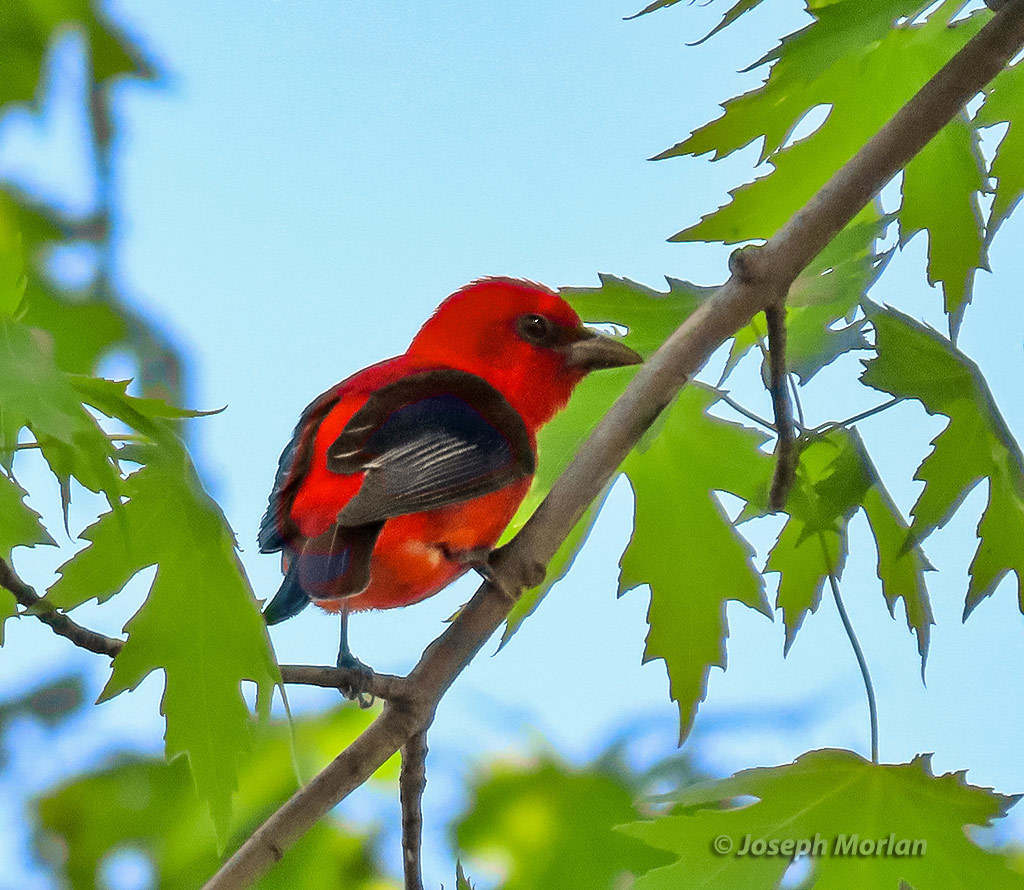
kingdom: Animalia
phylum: Chordata
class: Aves
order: Passeriformes
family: Cardinalidae
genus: Piranga
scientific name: Piranga olivacea
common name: Scarlet tanager
